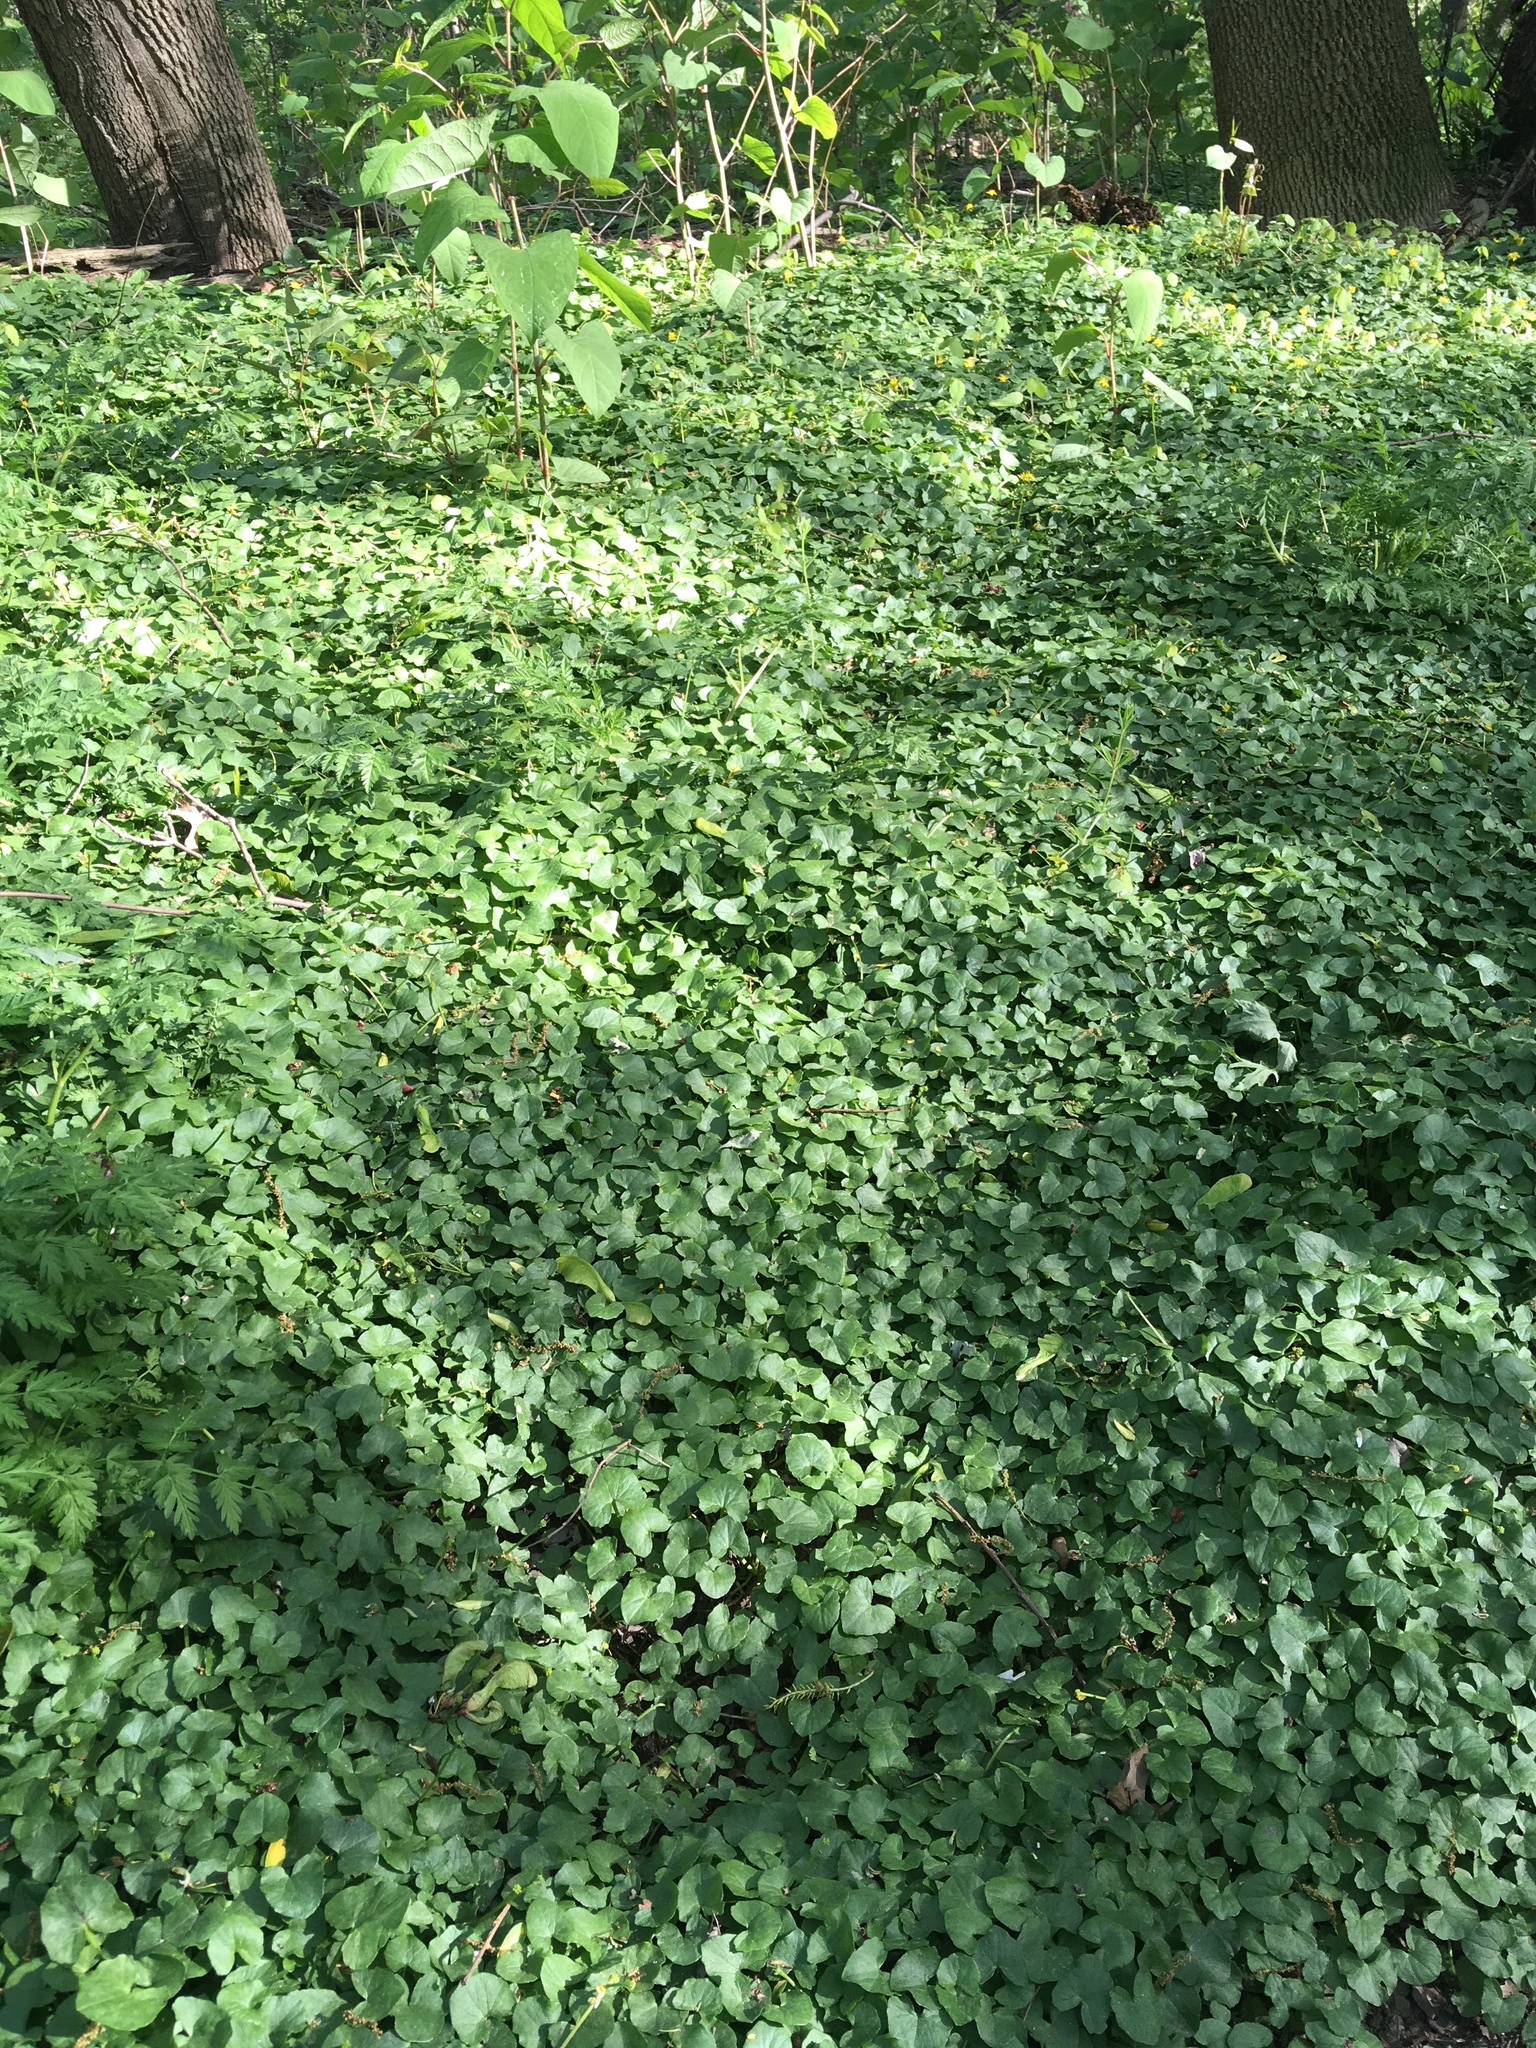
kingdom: Plantae
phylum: Tracheophyta
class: Magnoliopsida
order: Ranunculales
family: Ranunculaceae
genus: Ficaria
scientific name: Ficaria verna
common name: Lesser celandine
